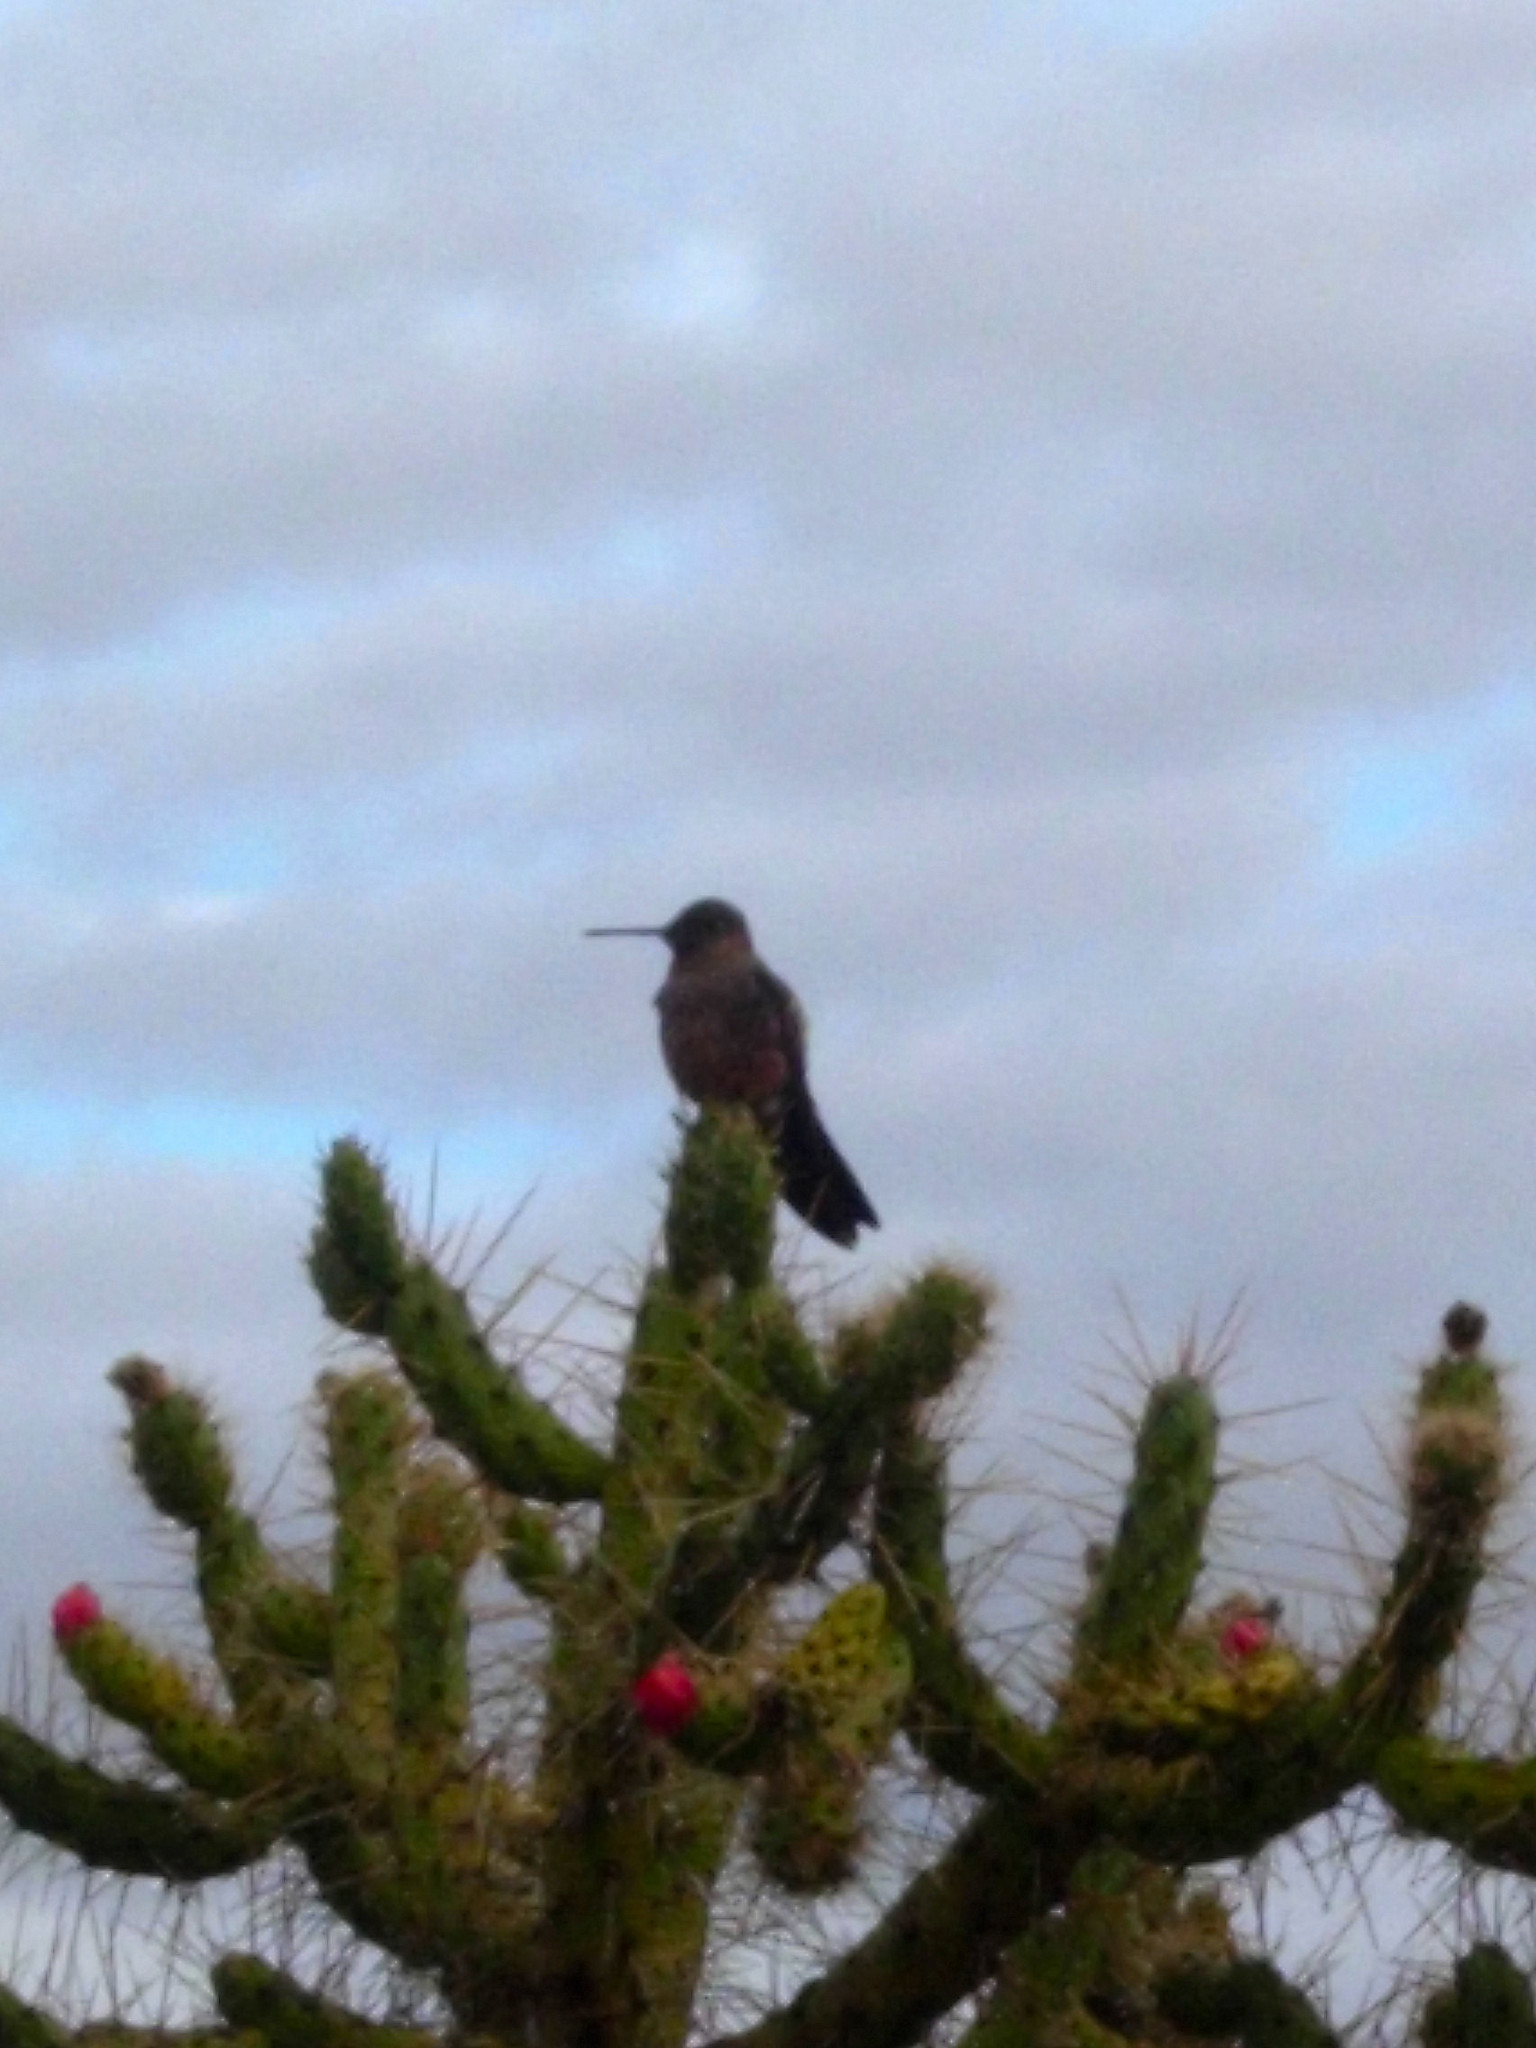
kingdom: Animalia
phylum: Chordata
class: Aves
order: Apodiformes
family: Trochilidae
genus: Patagona
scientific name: Patagona gigas
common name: Giant hummingbird
